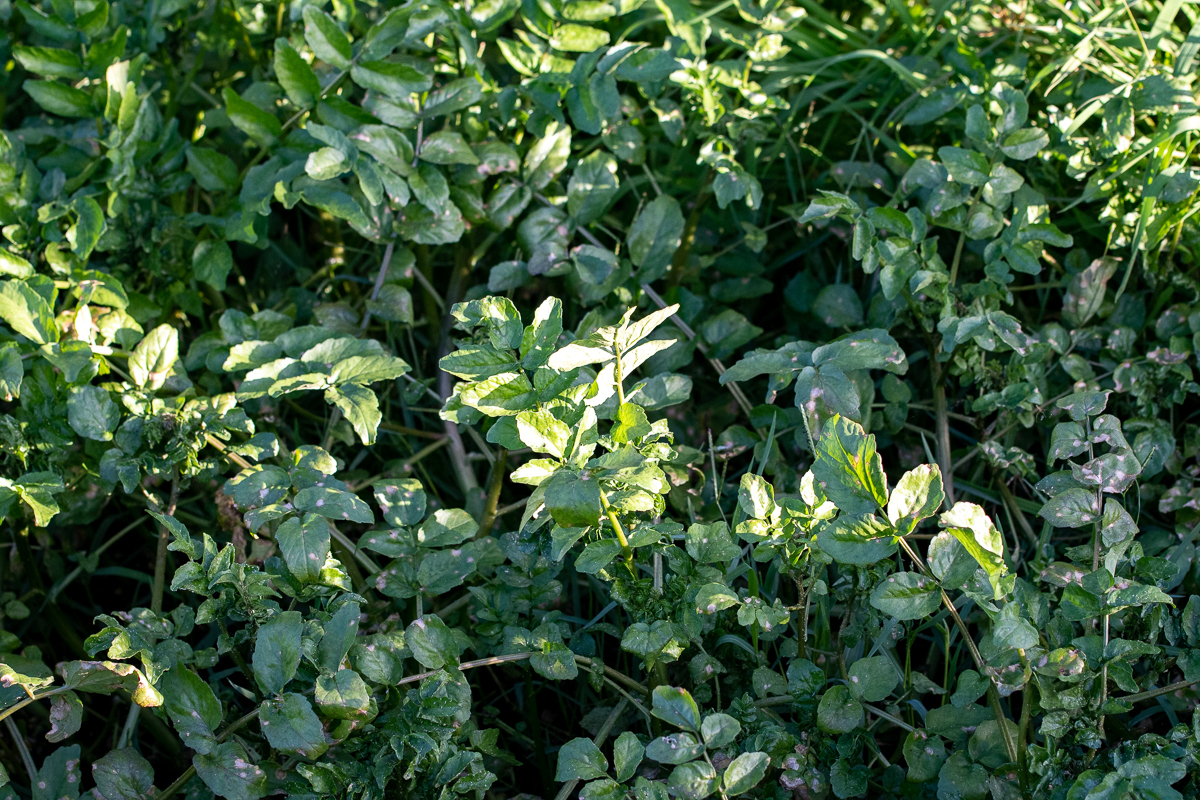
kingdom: Plantae
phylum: Tracheophyta
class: Magnoliopsida
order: Brassicales
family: Brassicaceae
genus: Nasturtium
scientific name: Nasturtium officinale
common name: Watercress
